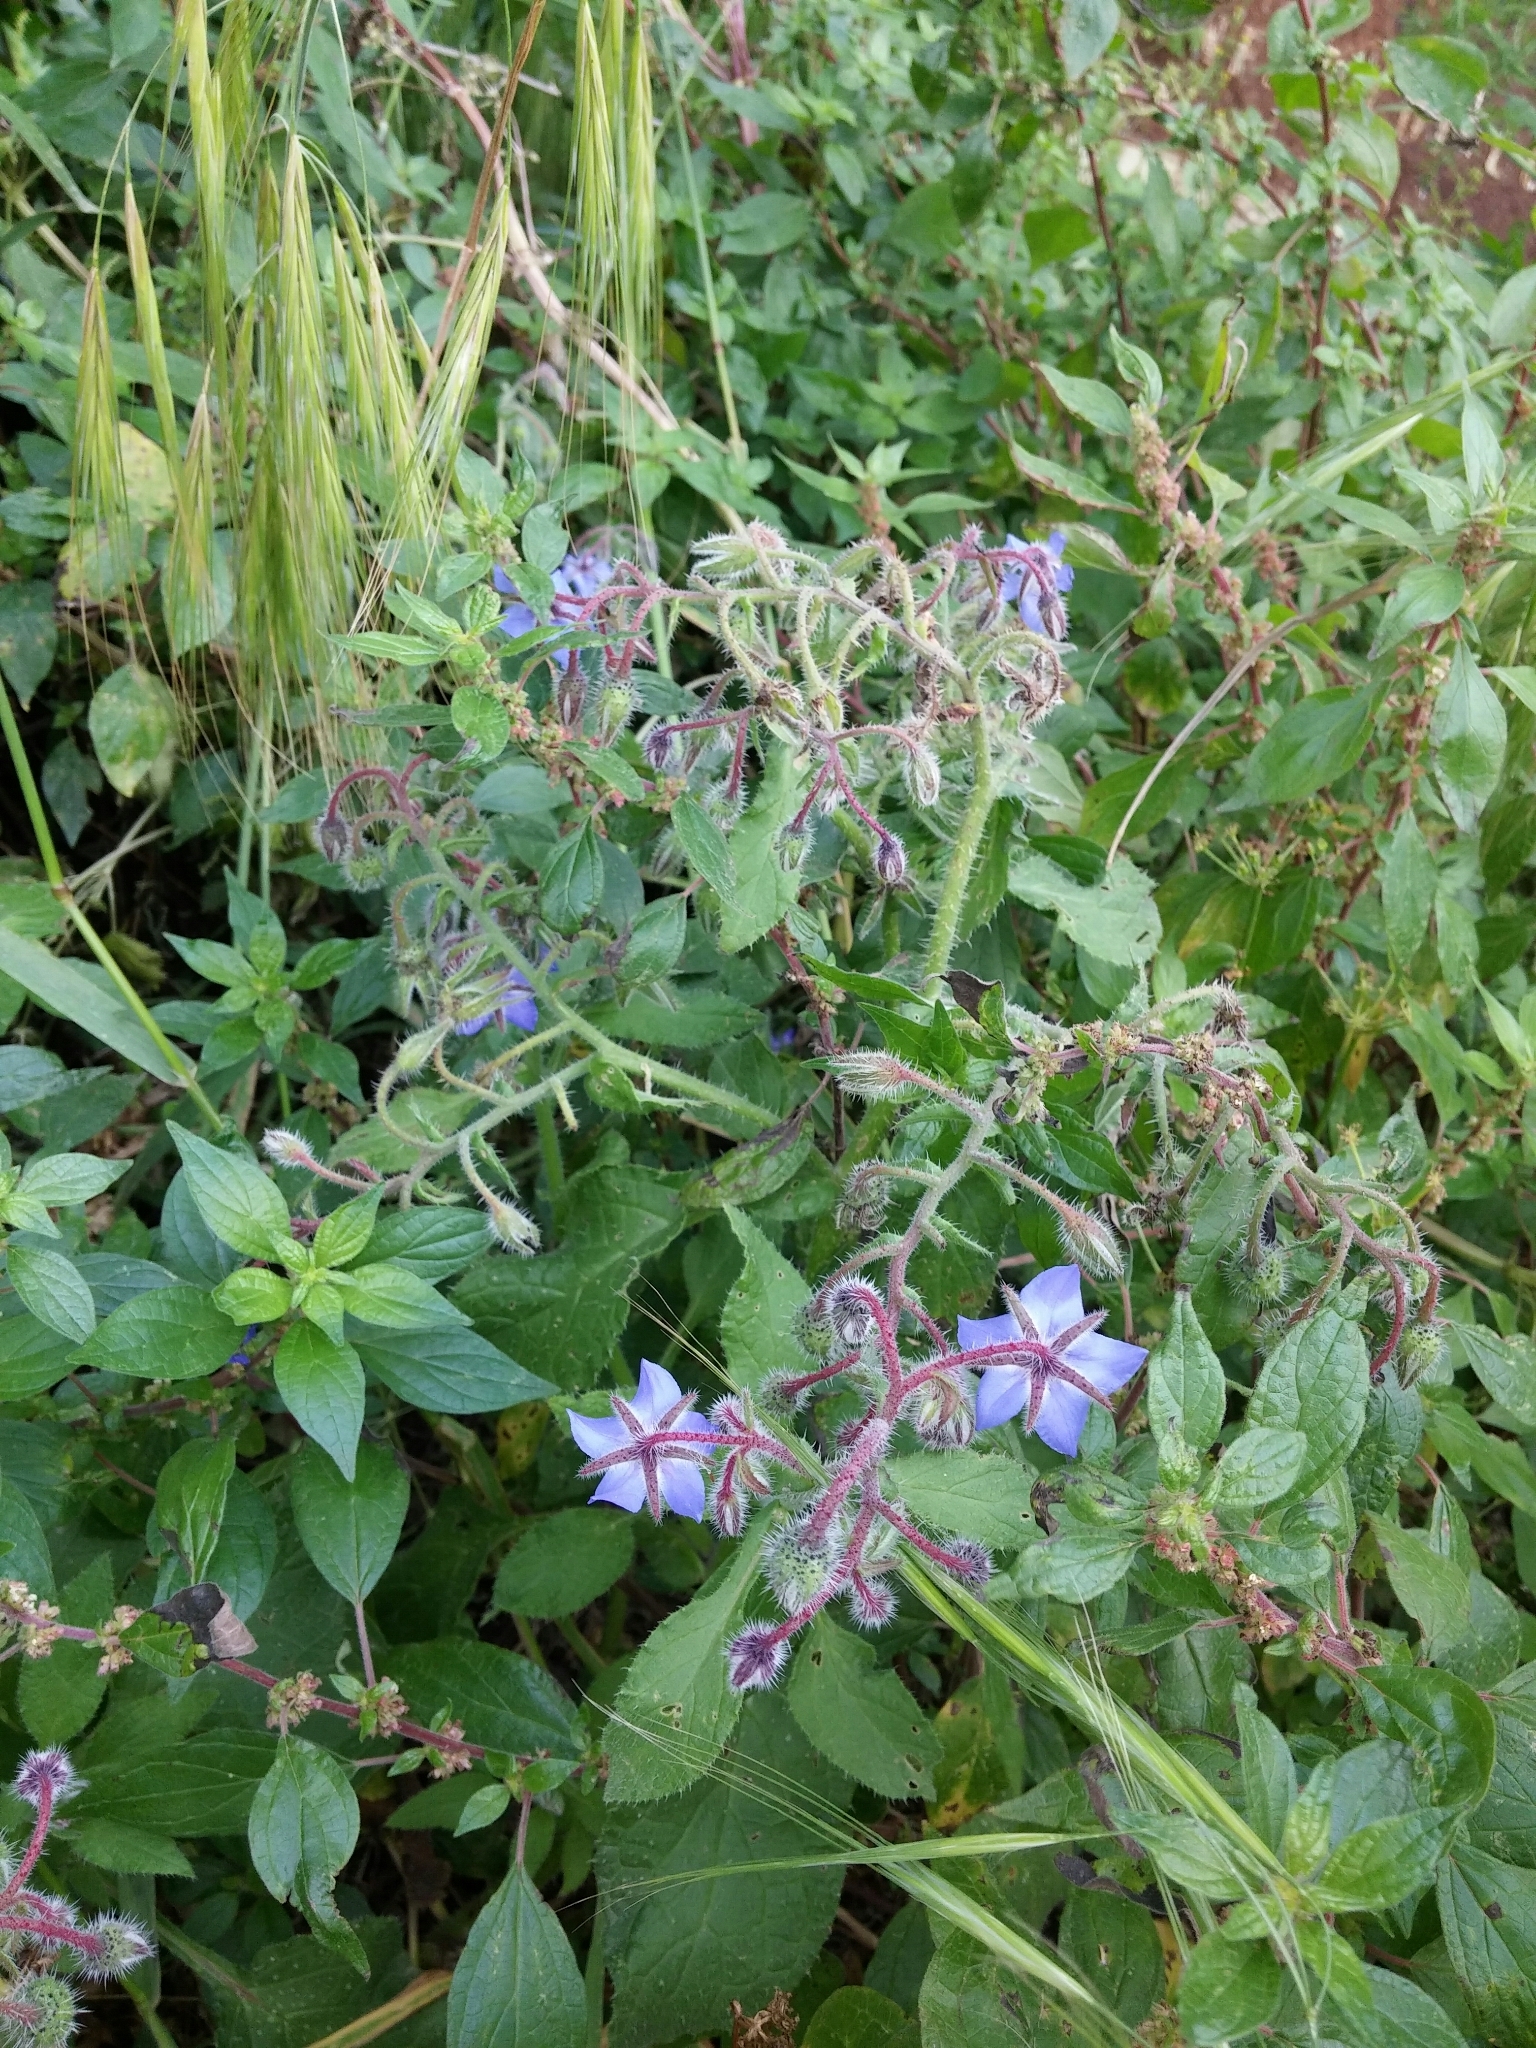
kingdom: Plantae
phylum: Tracheophyta
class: Magnoliopsida
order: Boraginales
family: Boraginaceae
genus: Borago
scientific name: Borago officinalis
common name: Borage
